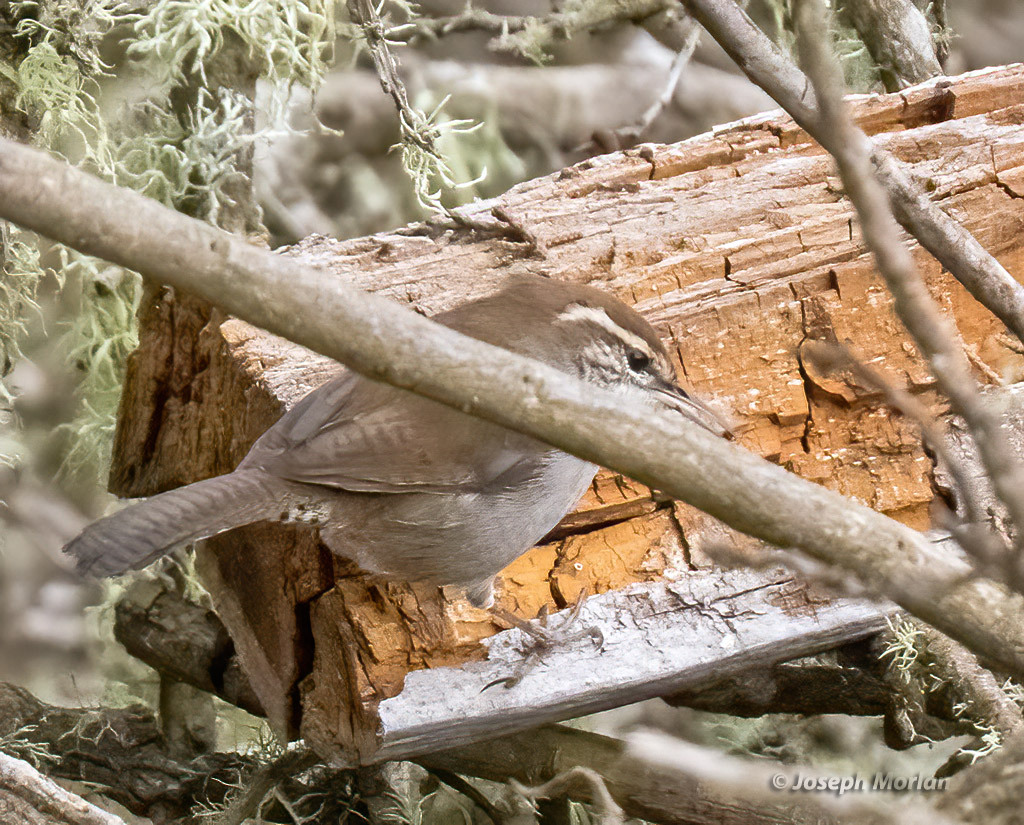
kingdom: Animalia
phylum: Chordata
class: Aves
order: Passeriformes
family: Troglodytidae
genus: Thryomanes
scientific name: Thryomanes bewickii
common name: Bewick's wren
